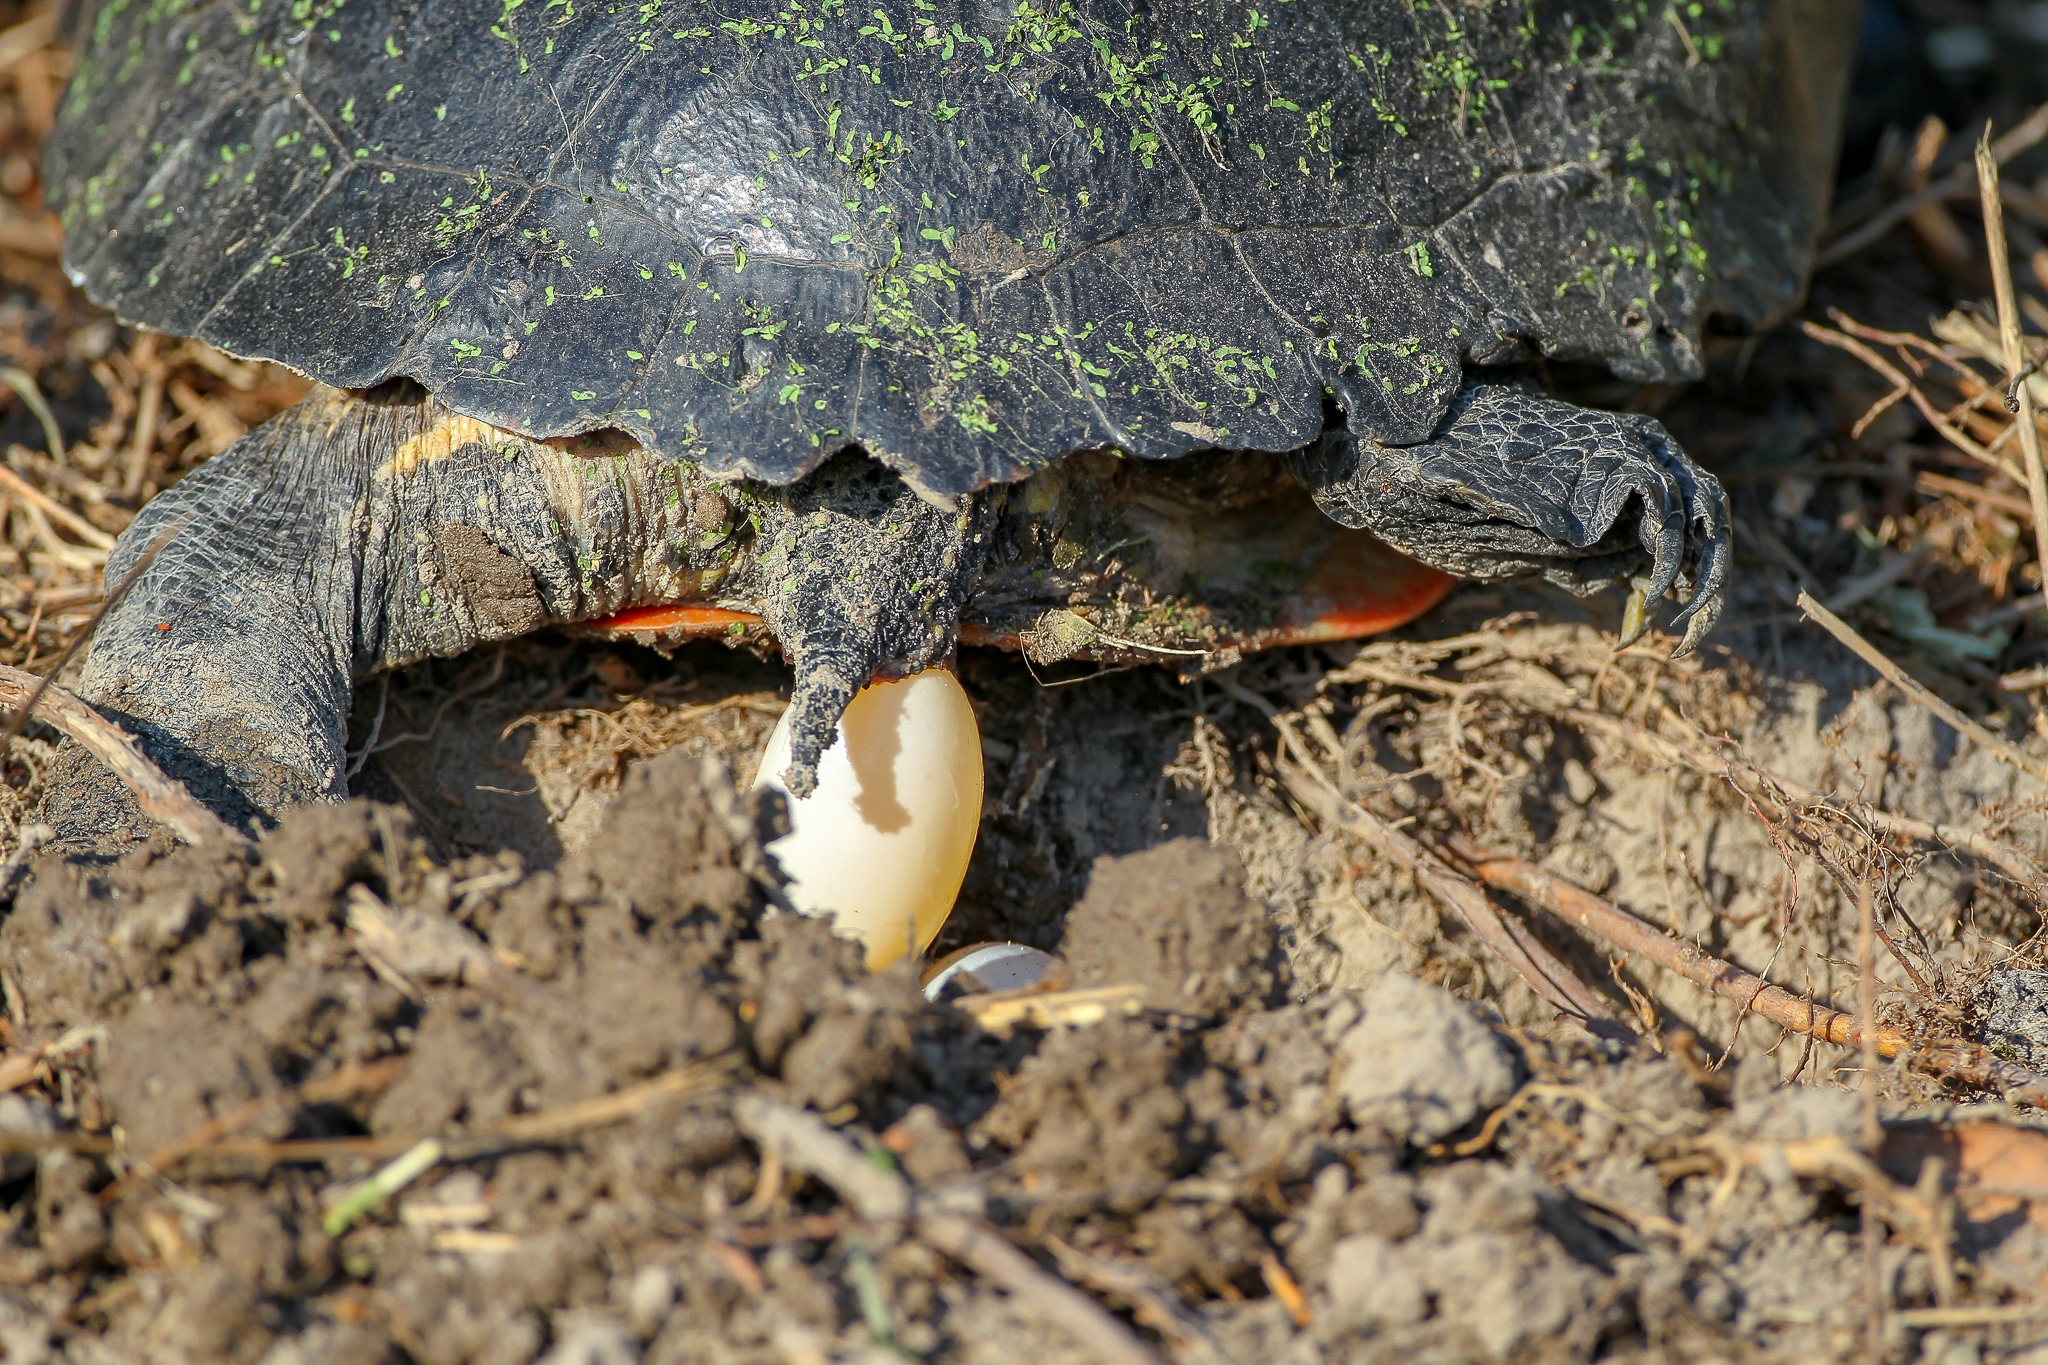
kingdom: Animalia
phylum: Chordata
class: Testudines
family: Emydidae
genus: Trachemys
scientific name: Trachemys scripta
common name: Slider
